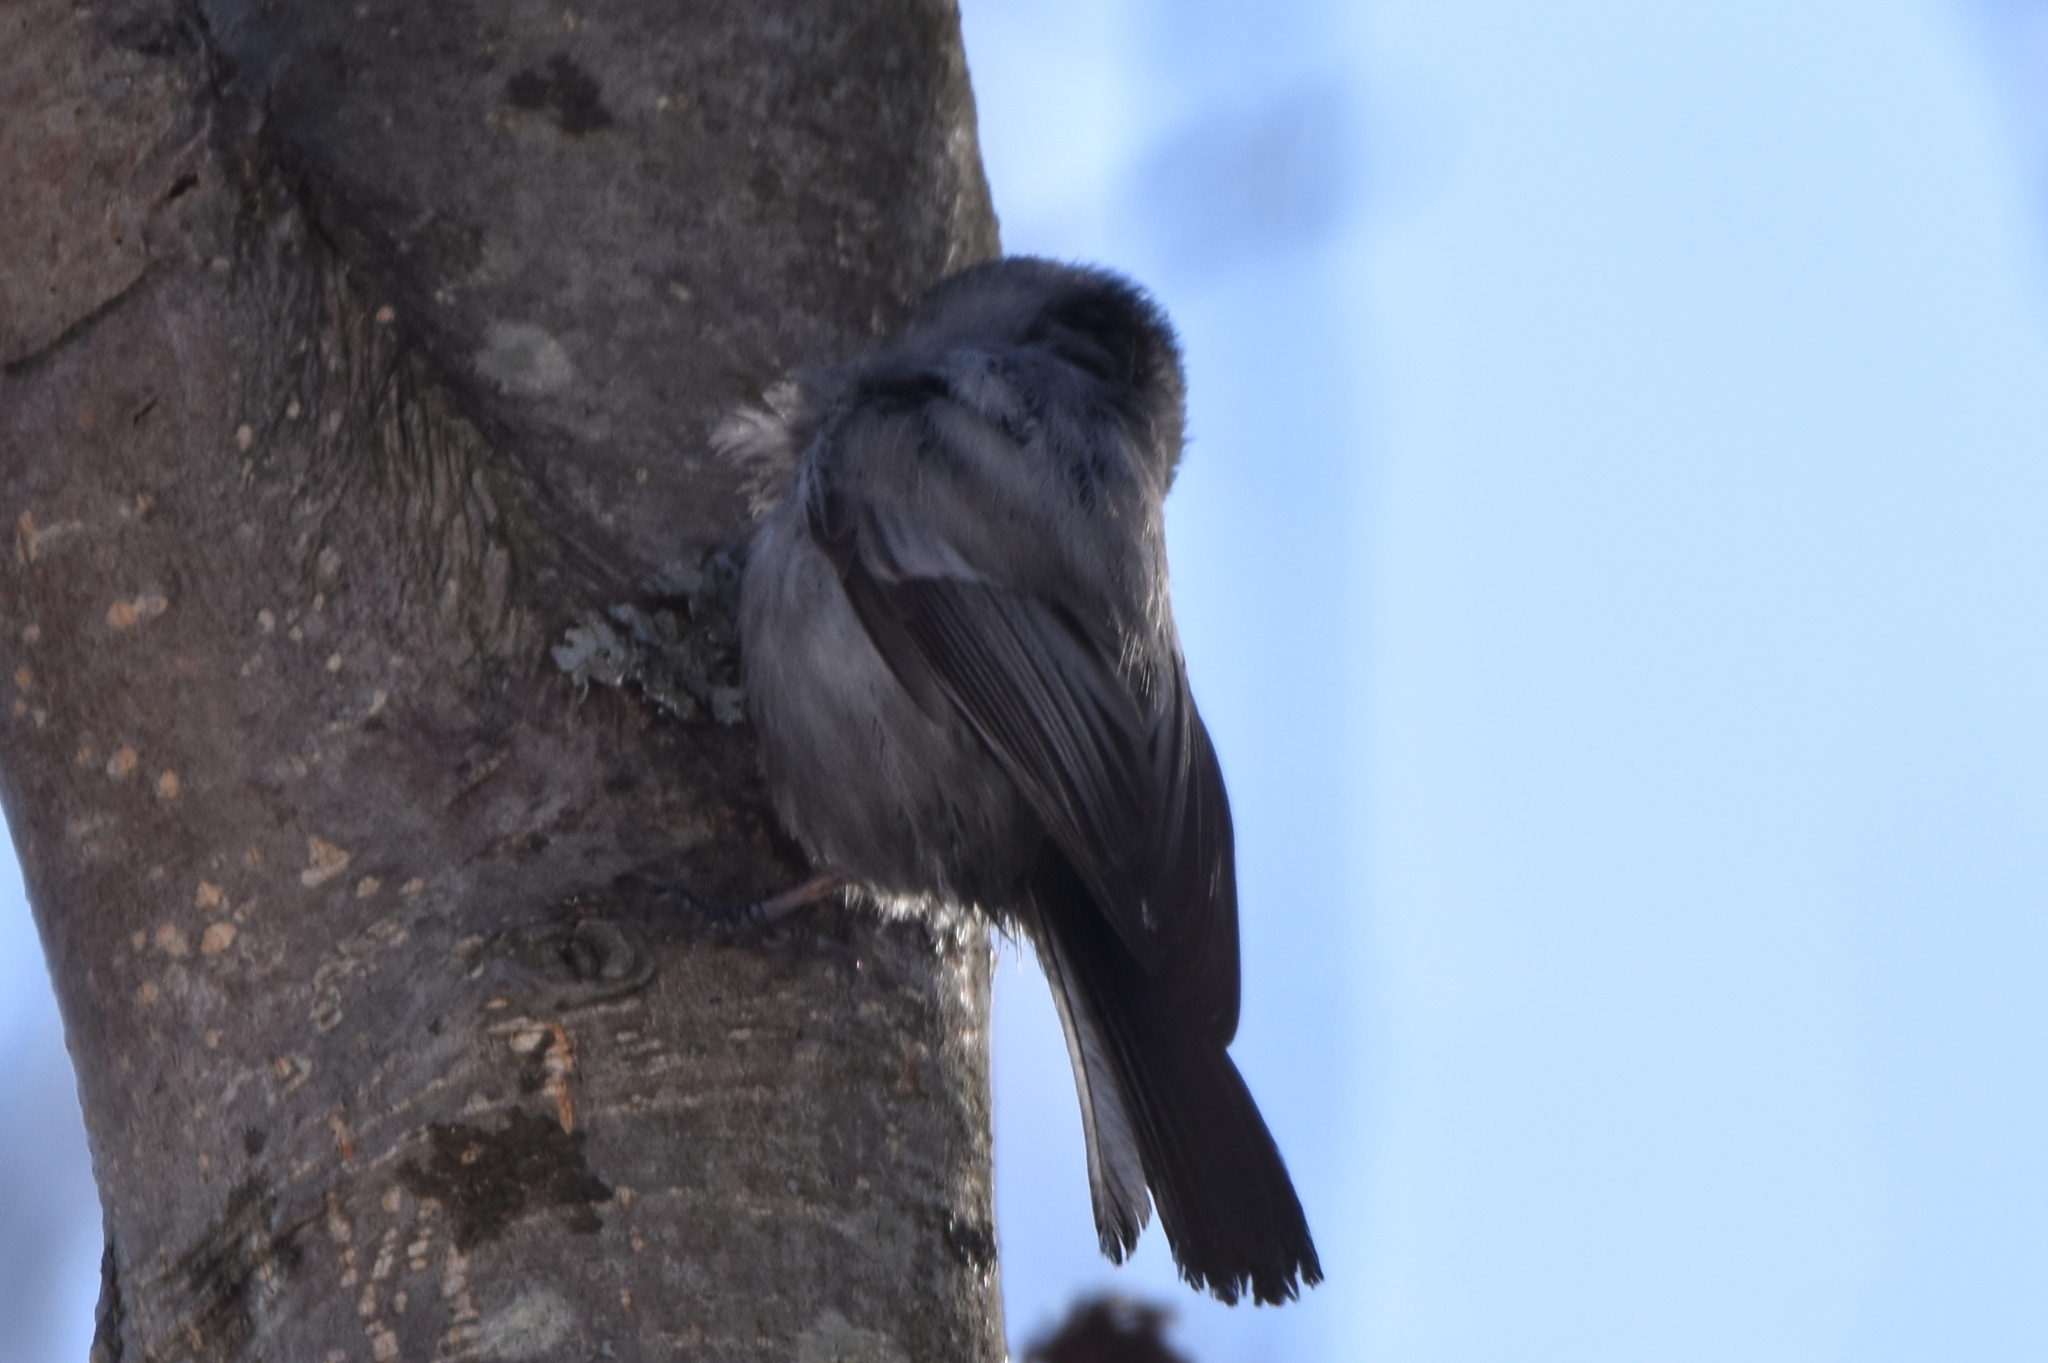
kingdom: Animalia
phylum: Chordata
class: Aves
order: Passeriformes
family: Paridae
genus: Poecile
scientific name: Poecile montanus
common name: Willow tit
